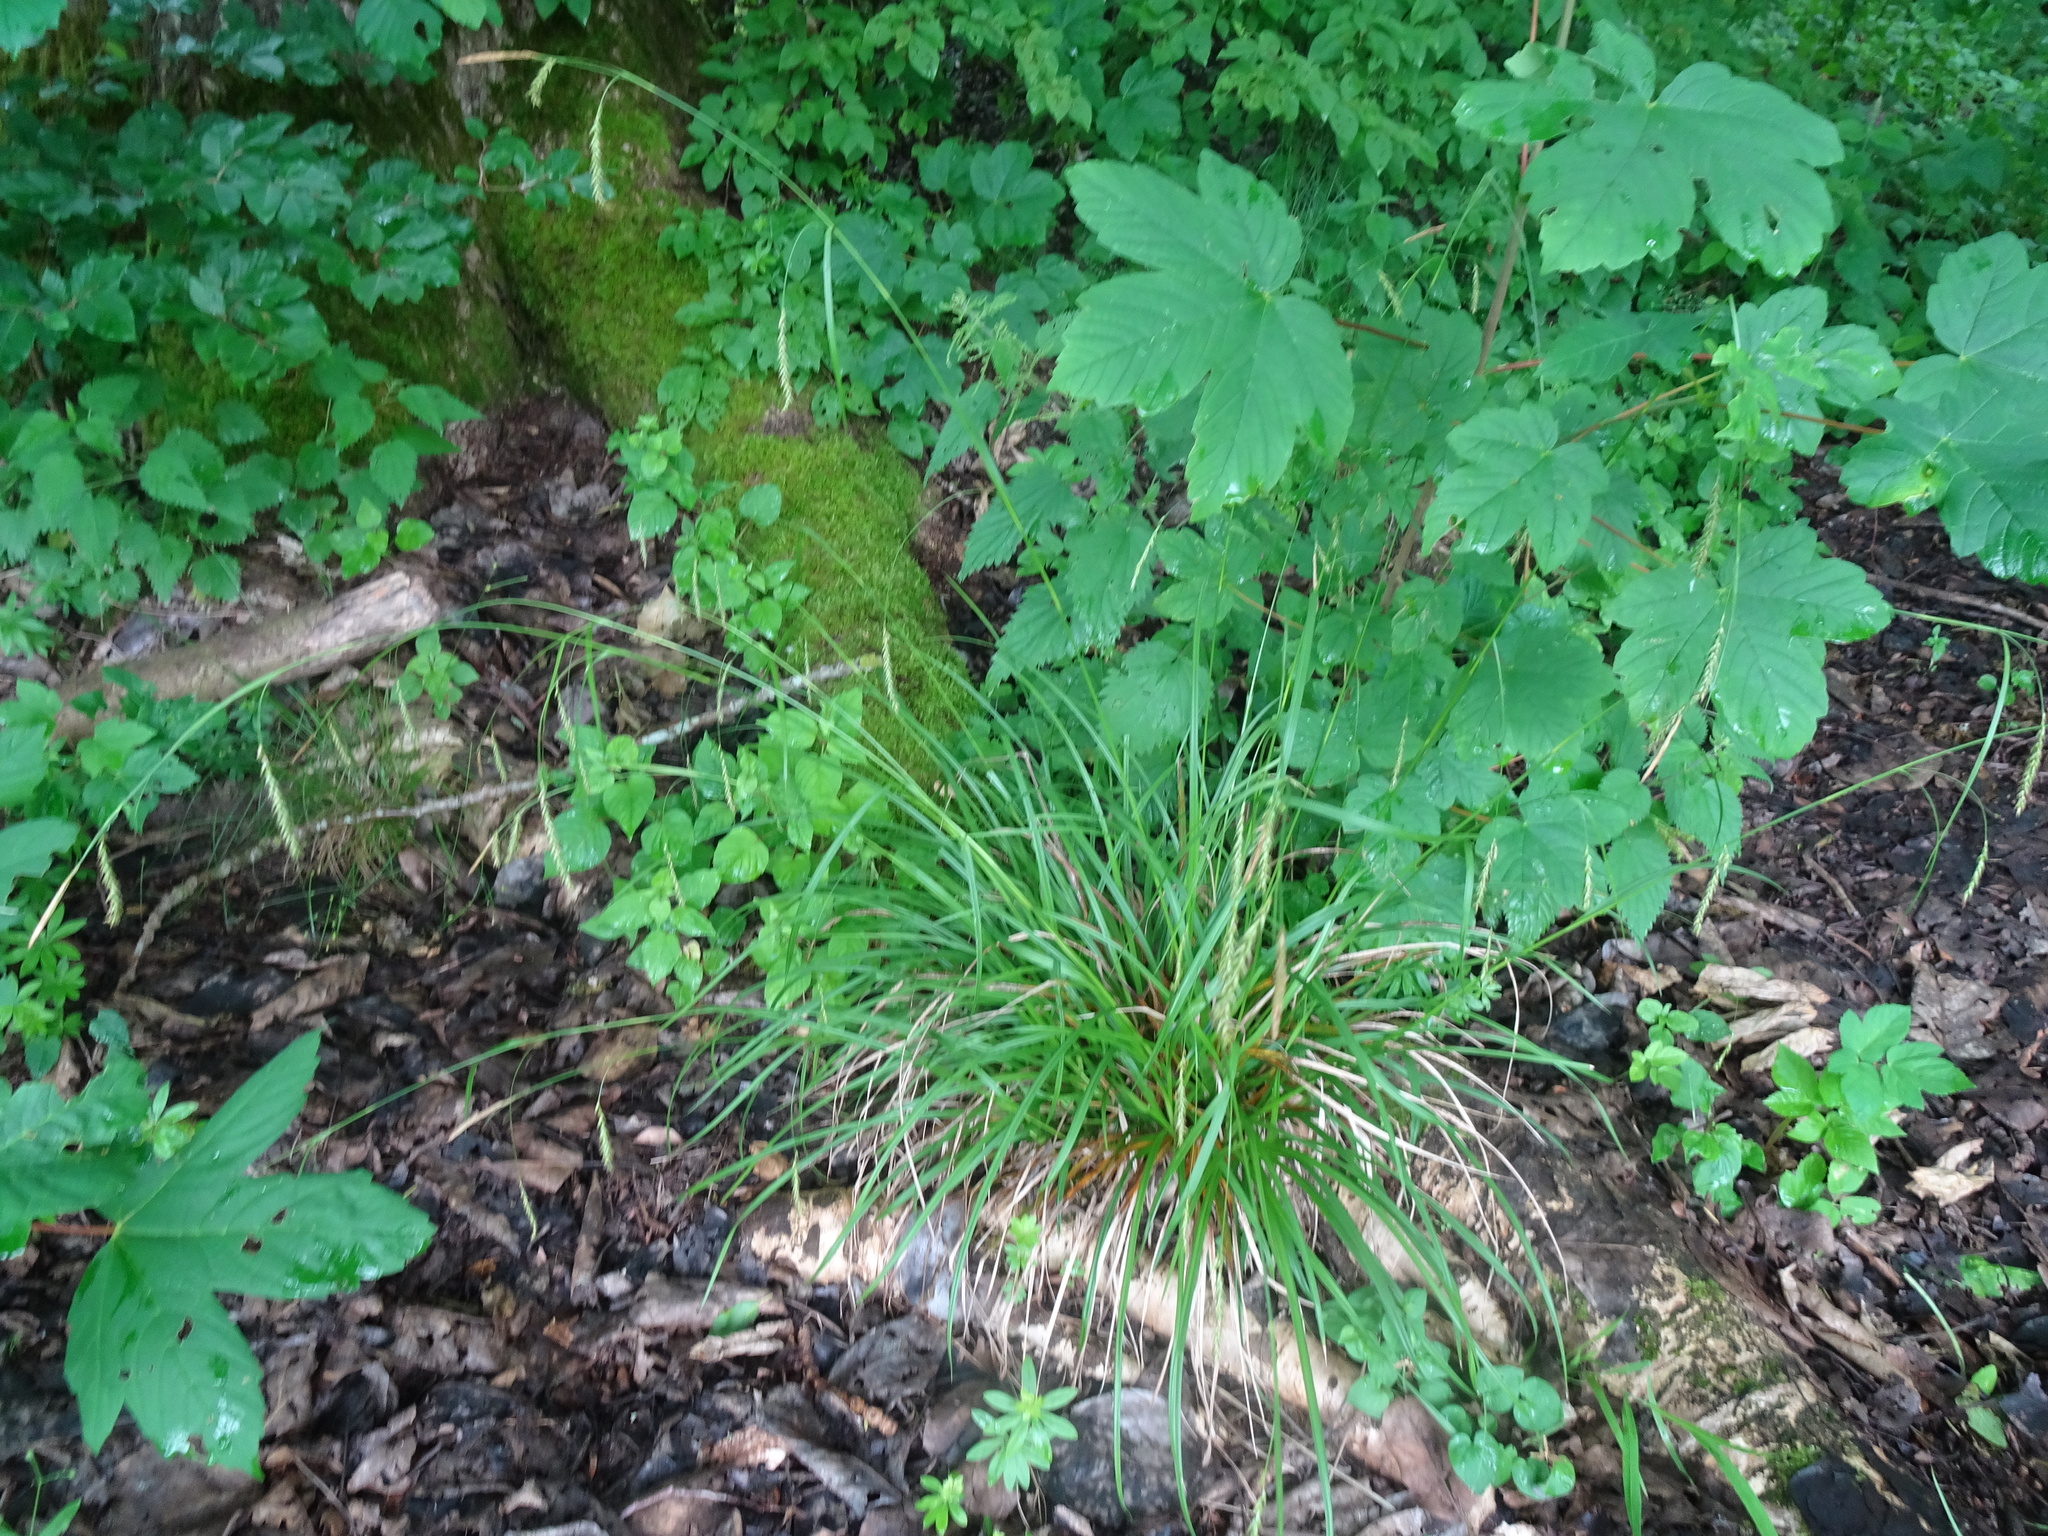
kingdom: Plantae
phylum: Tracheophyta
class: Liliopsida
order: Poales
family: Cyperaceae
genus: Carex
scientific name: Carex sylvatica
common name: Wood-sedge
